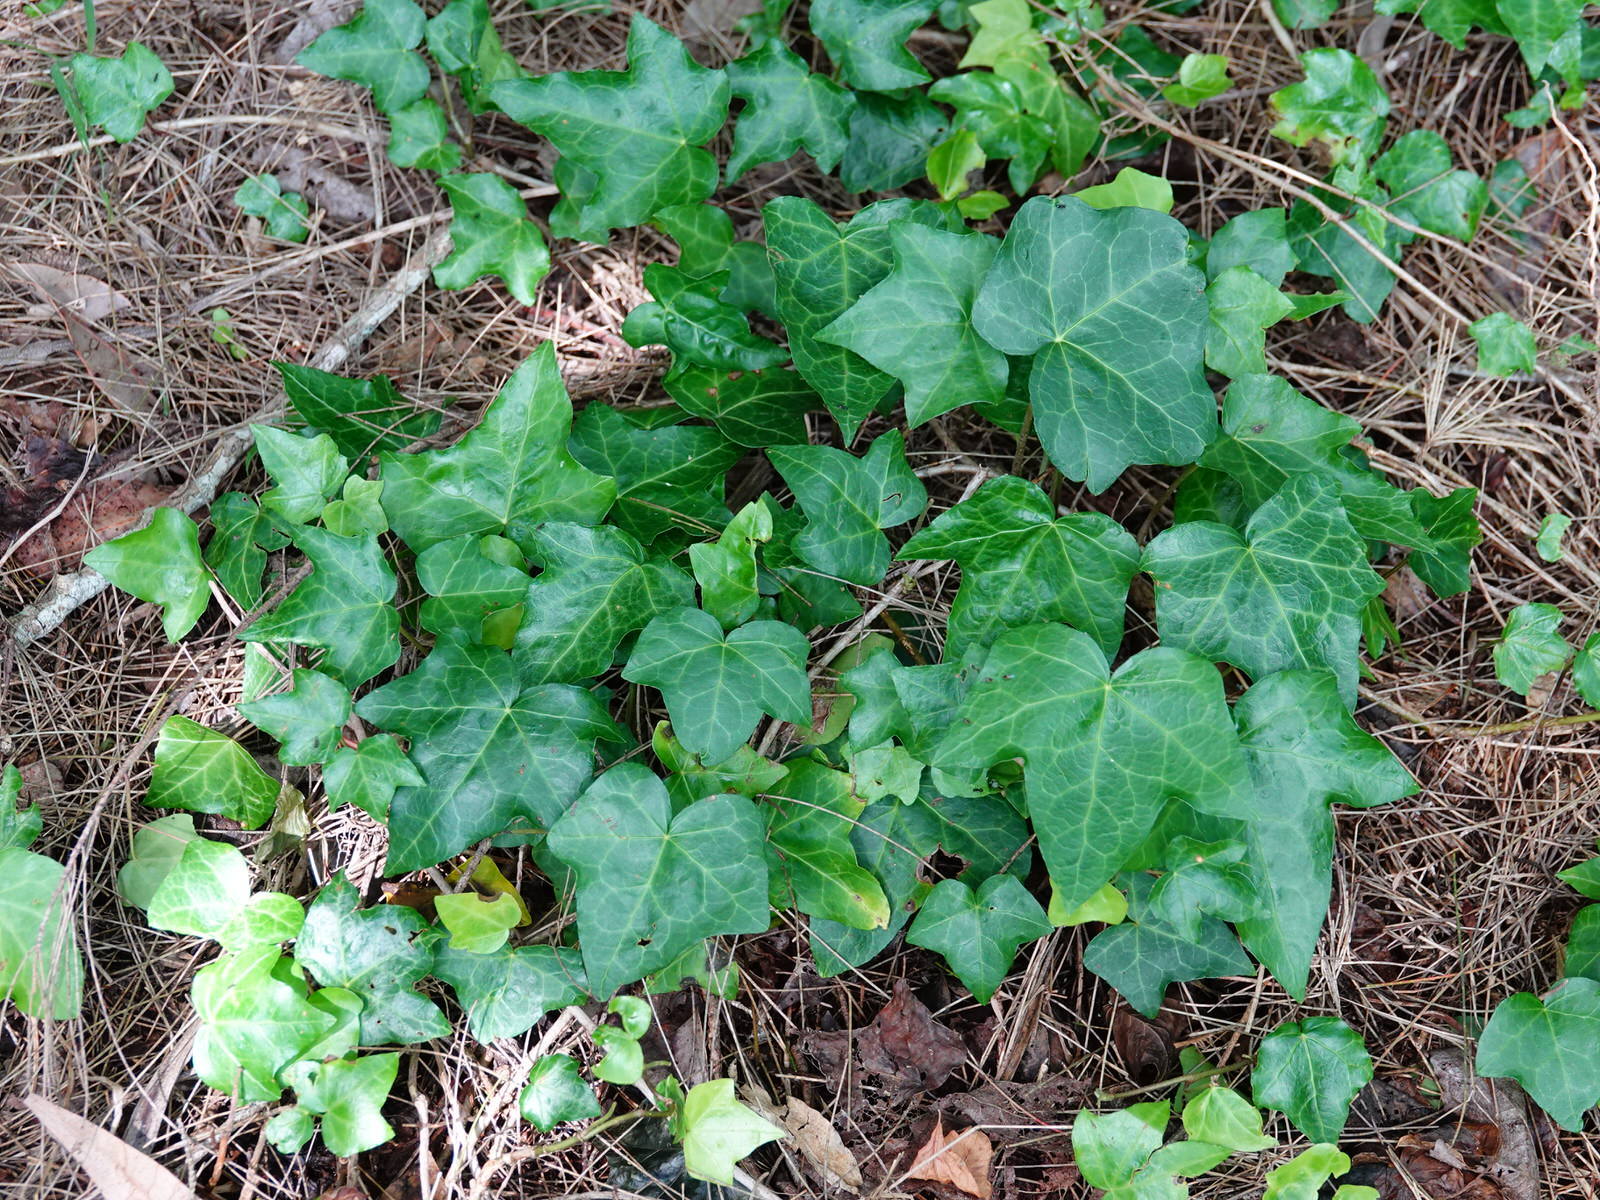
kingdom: Plantae
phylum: Tracheophyta
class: Magnoliopsida
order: Apiales
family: Araliaceae
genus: Hedera
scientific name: Hedera helix
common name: Ivy
